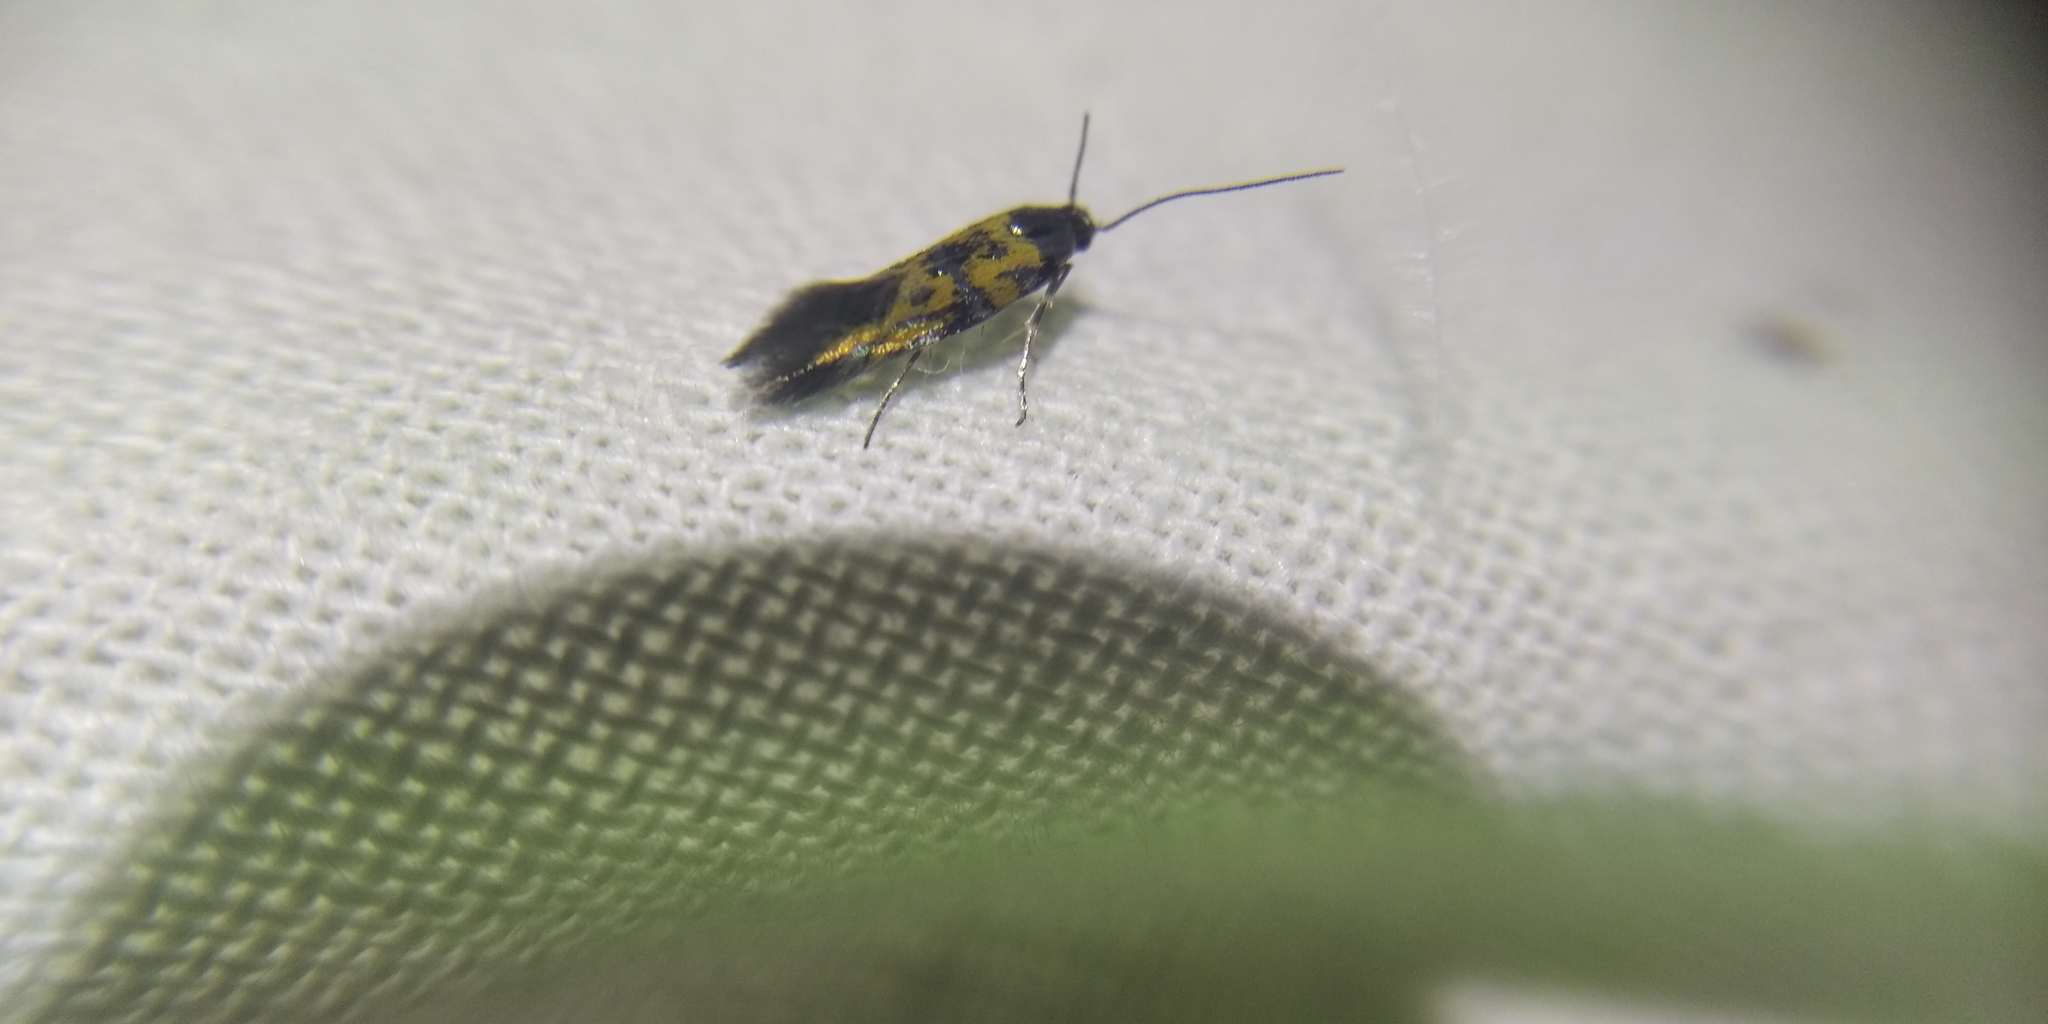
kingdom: Animalia
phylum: Arthropoda
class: Insecta
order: Lepidoptera
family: Gelechiidae
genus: Chrysoesthia
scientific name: Chrysoesthia drurella
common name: Flame neb
